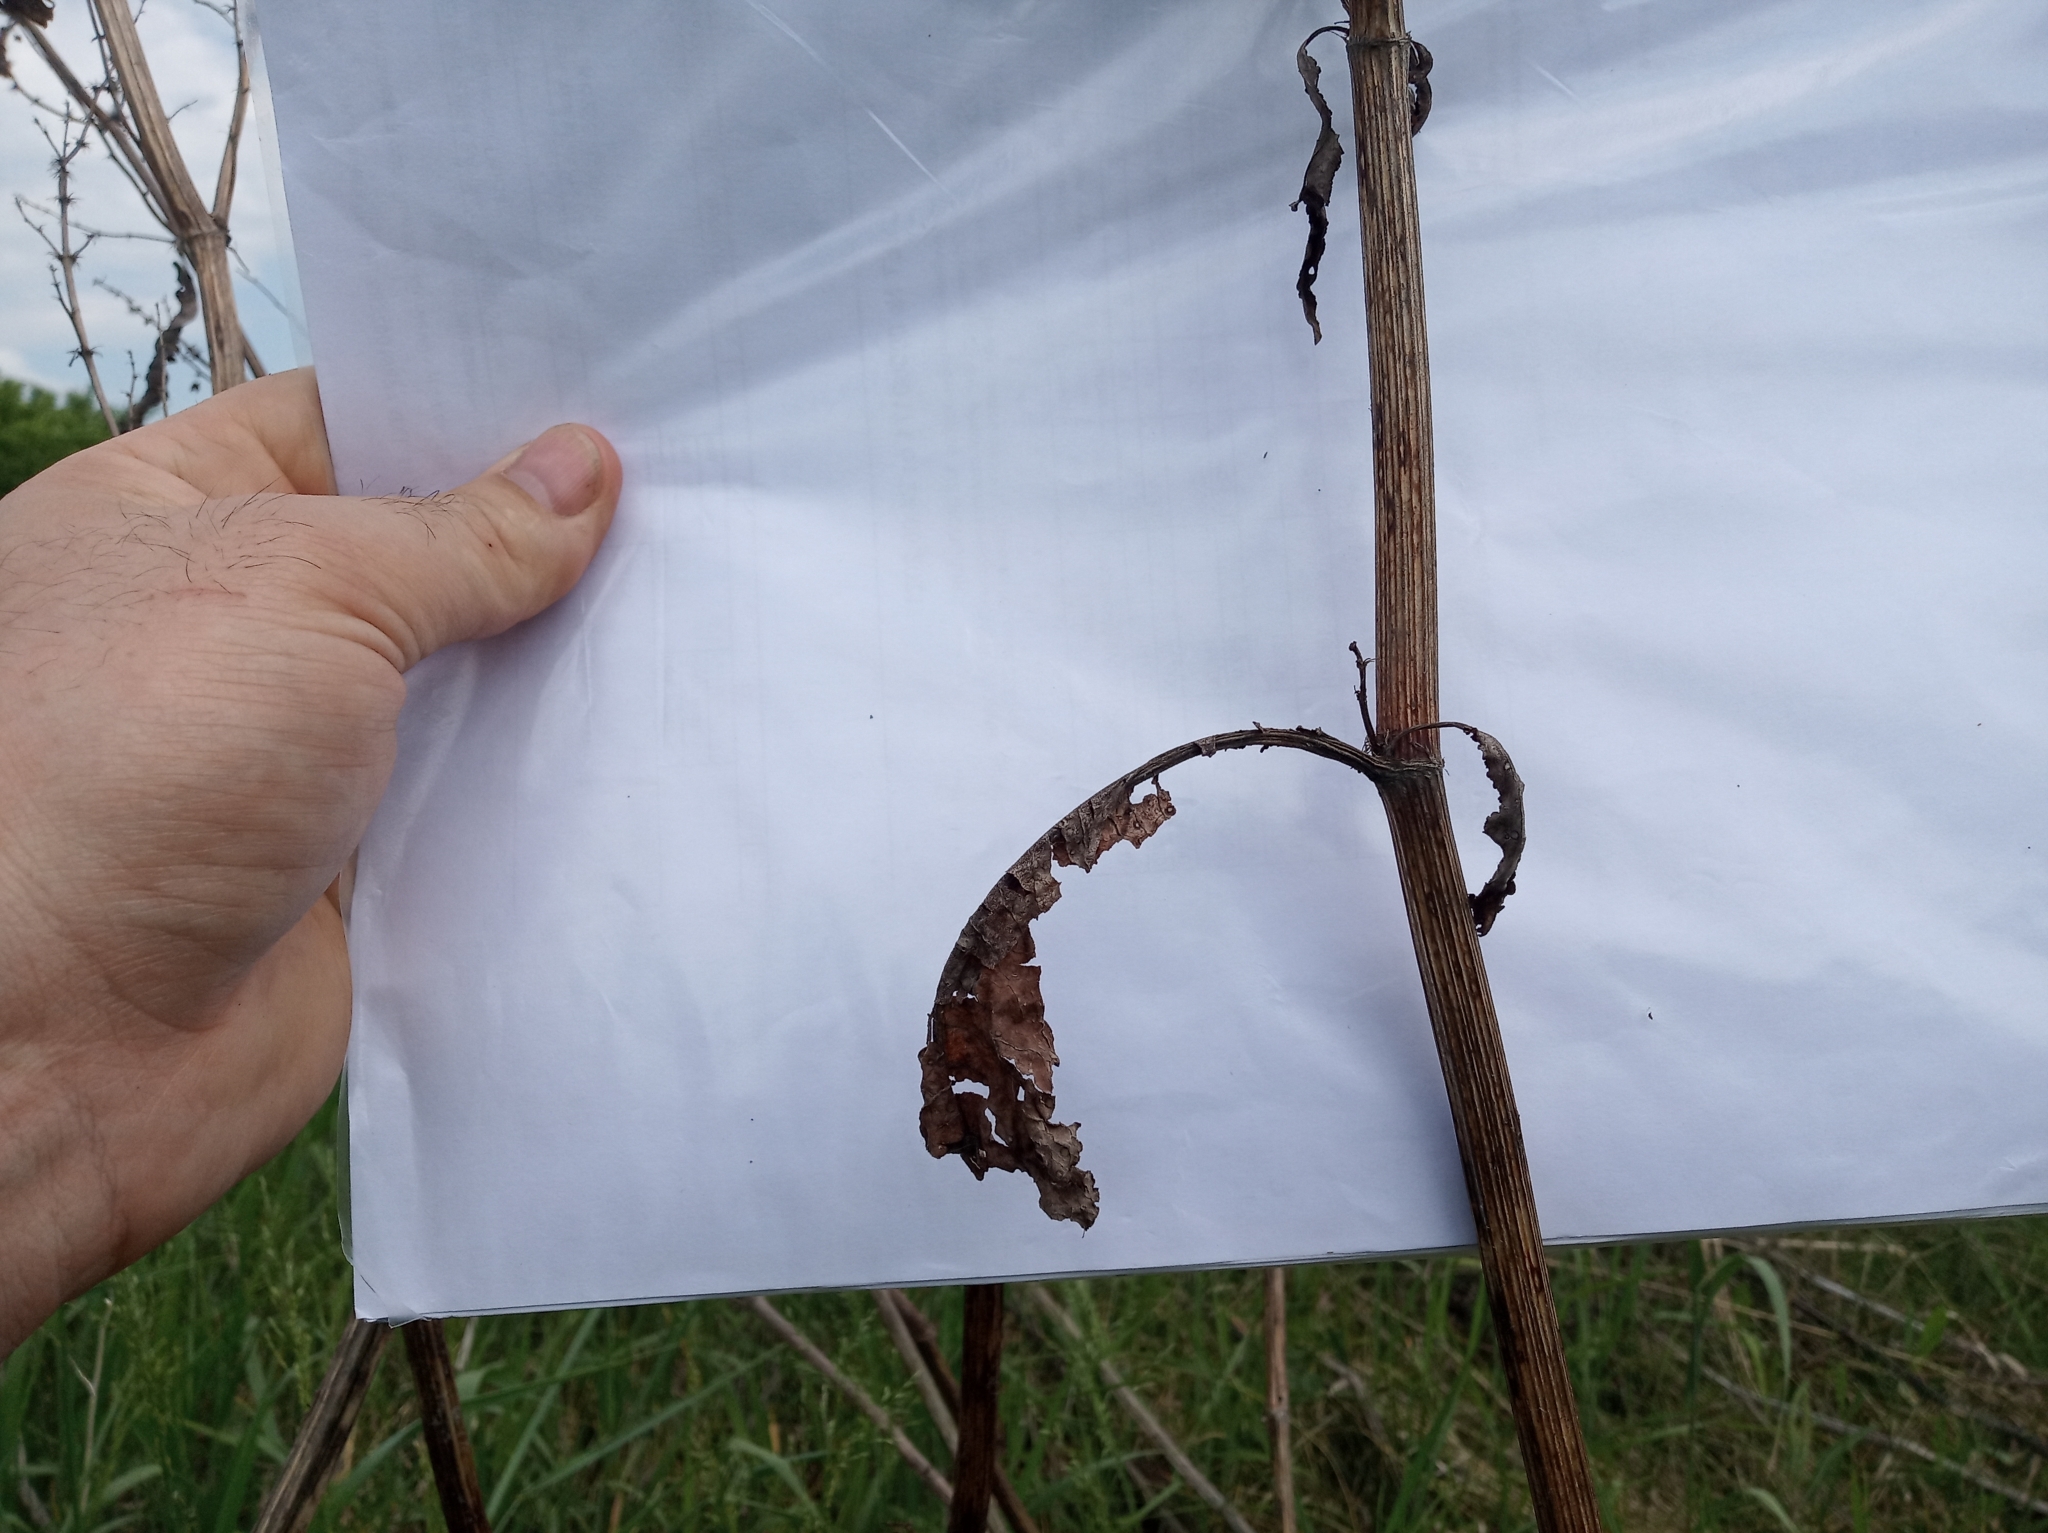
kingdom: Plantae
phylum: Tracheophyta
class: Magnoliopsida
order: Caryophyllales
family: Polygonaceae
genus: Rumex
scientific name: Rumex confertus
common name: Russian dock
